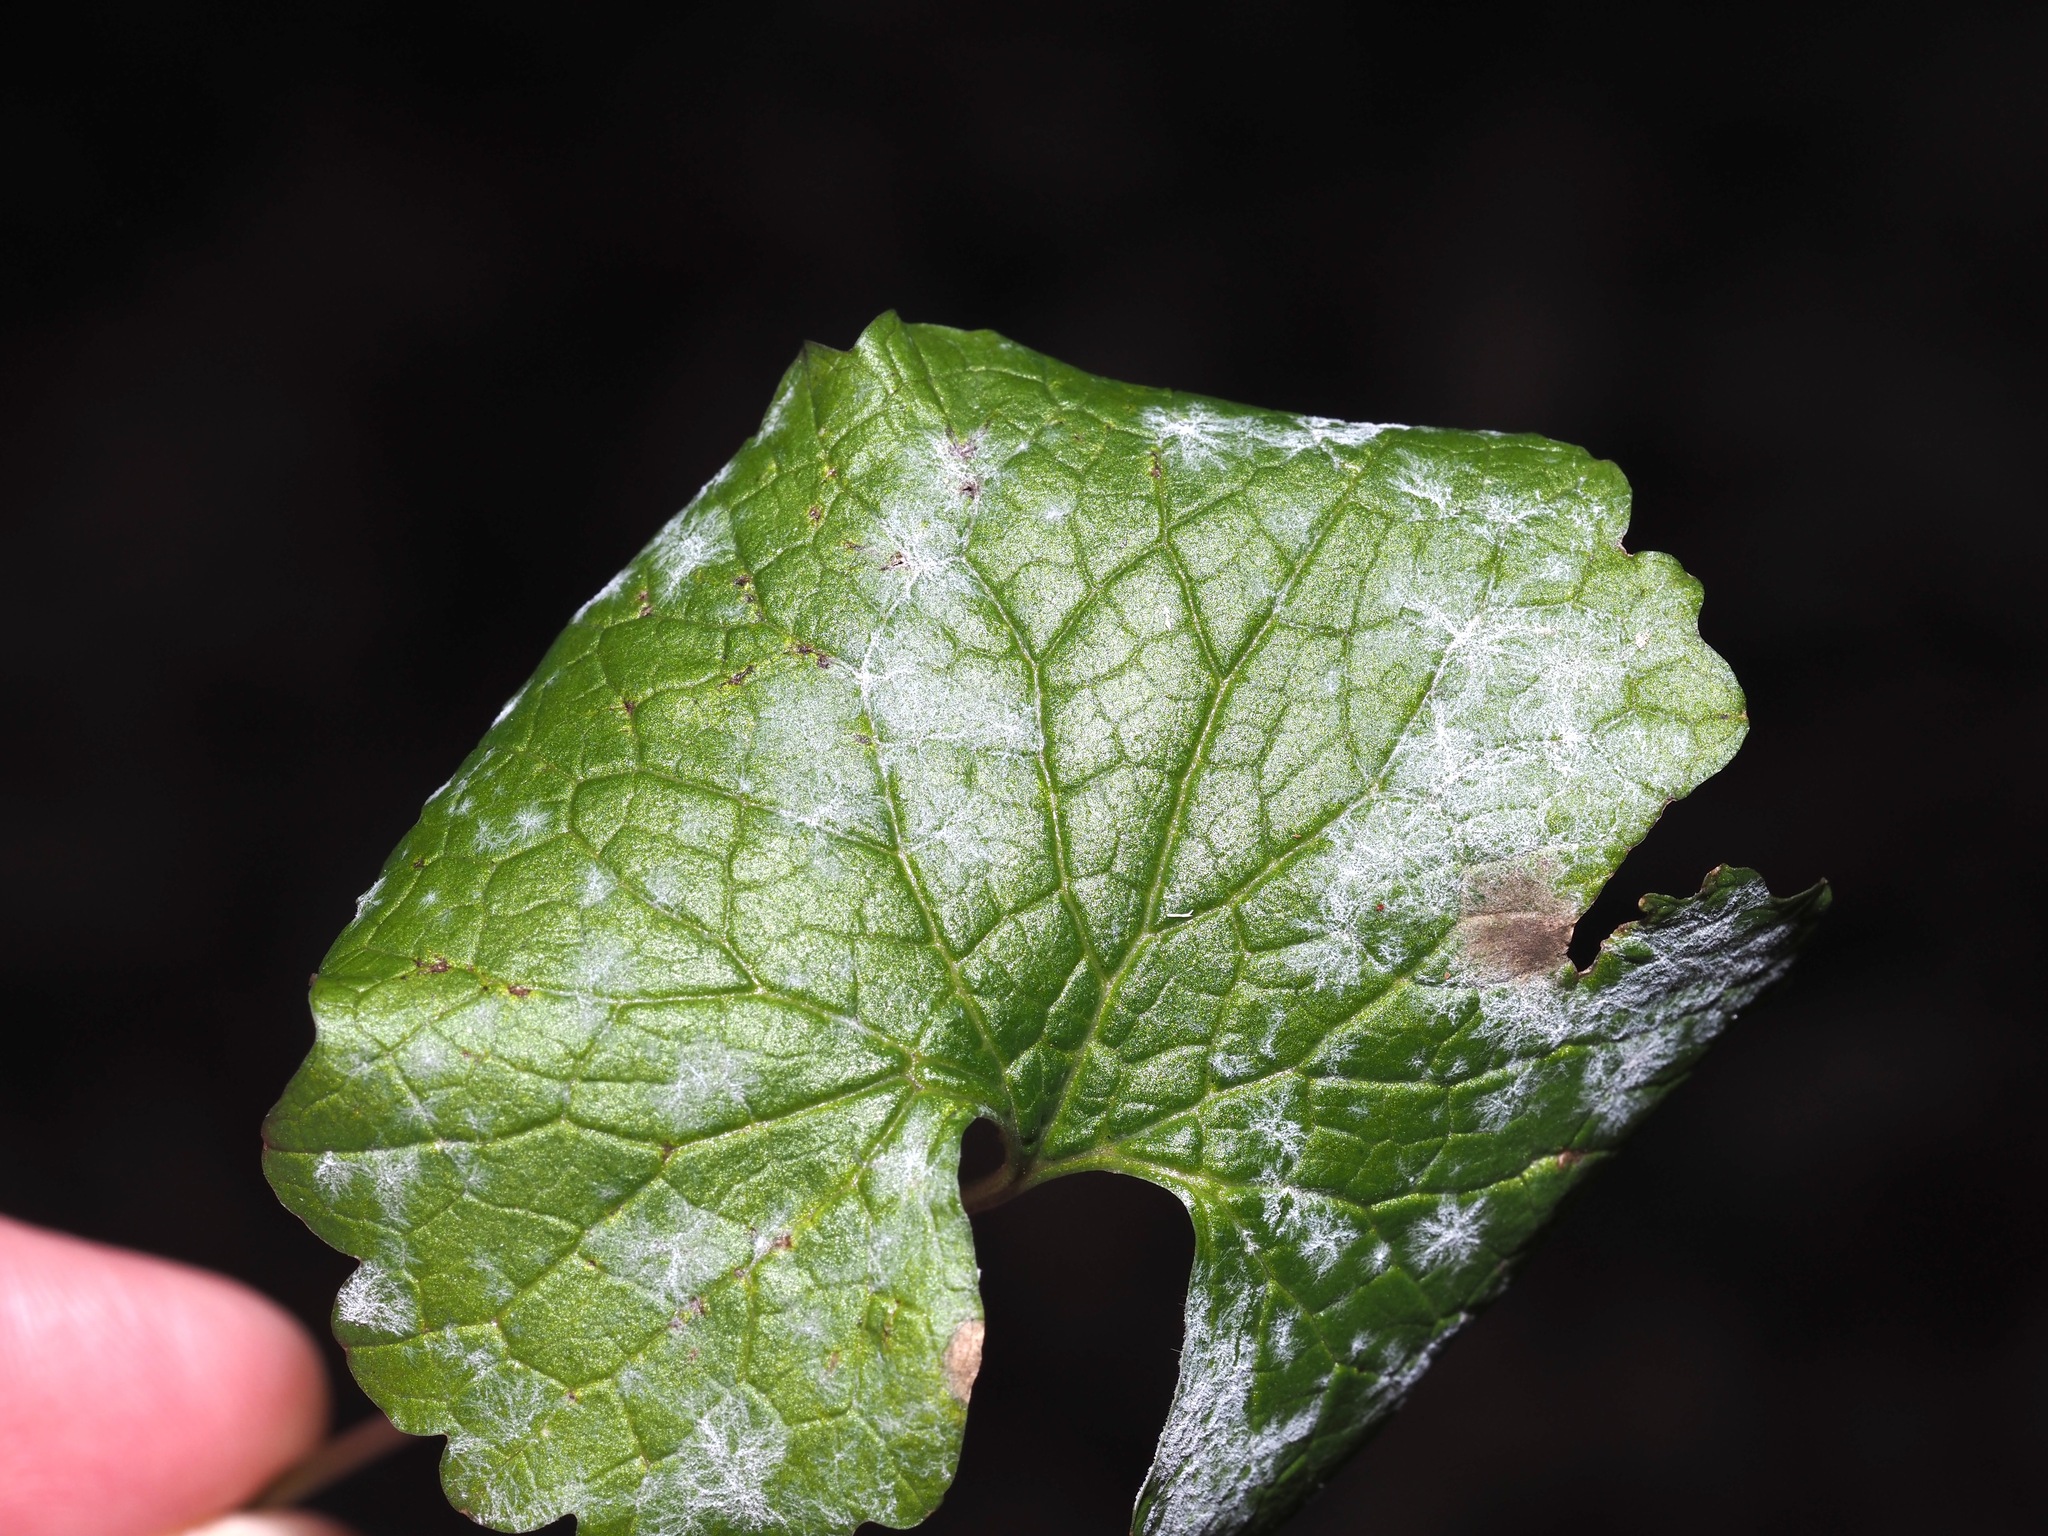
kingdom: Fungi
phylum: Ascomycota
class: Leotiomycetes
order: Helotiales
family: Erysiphaceae
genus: Erysiphe
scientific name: Erysiphe cruciferarum
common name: Brassica powdery mildew
